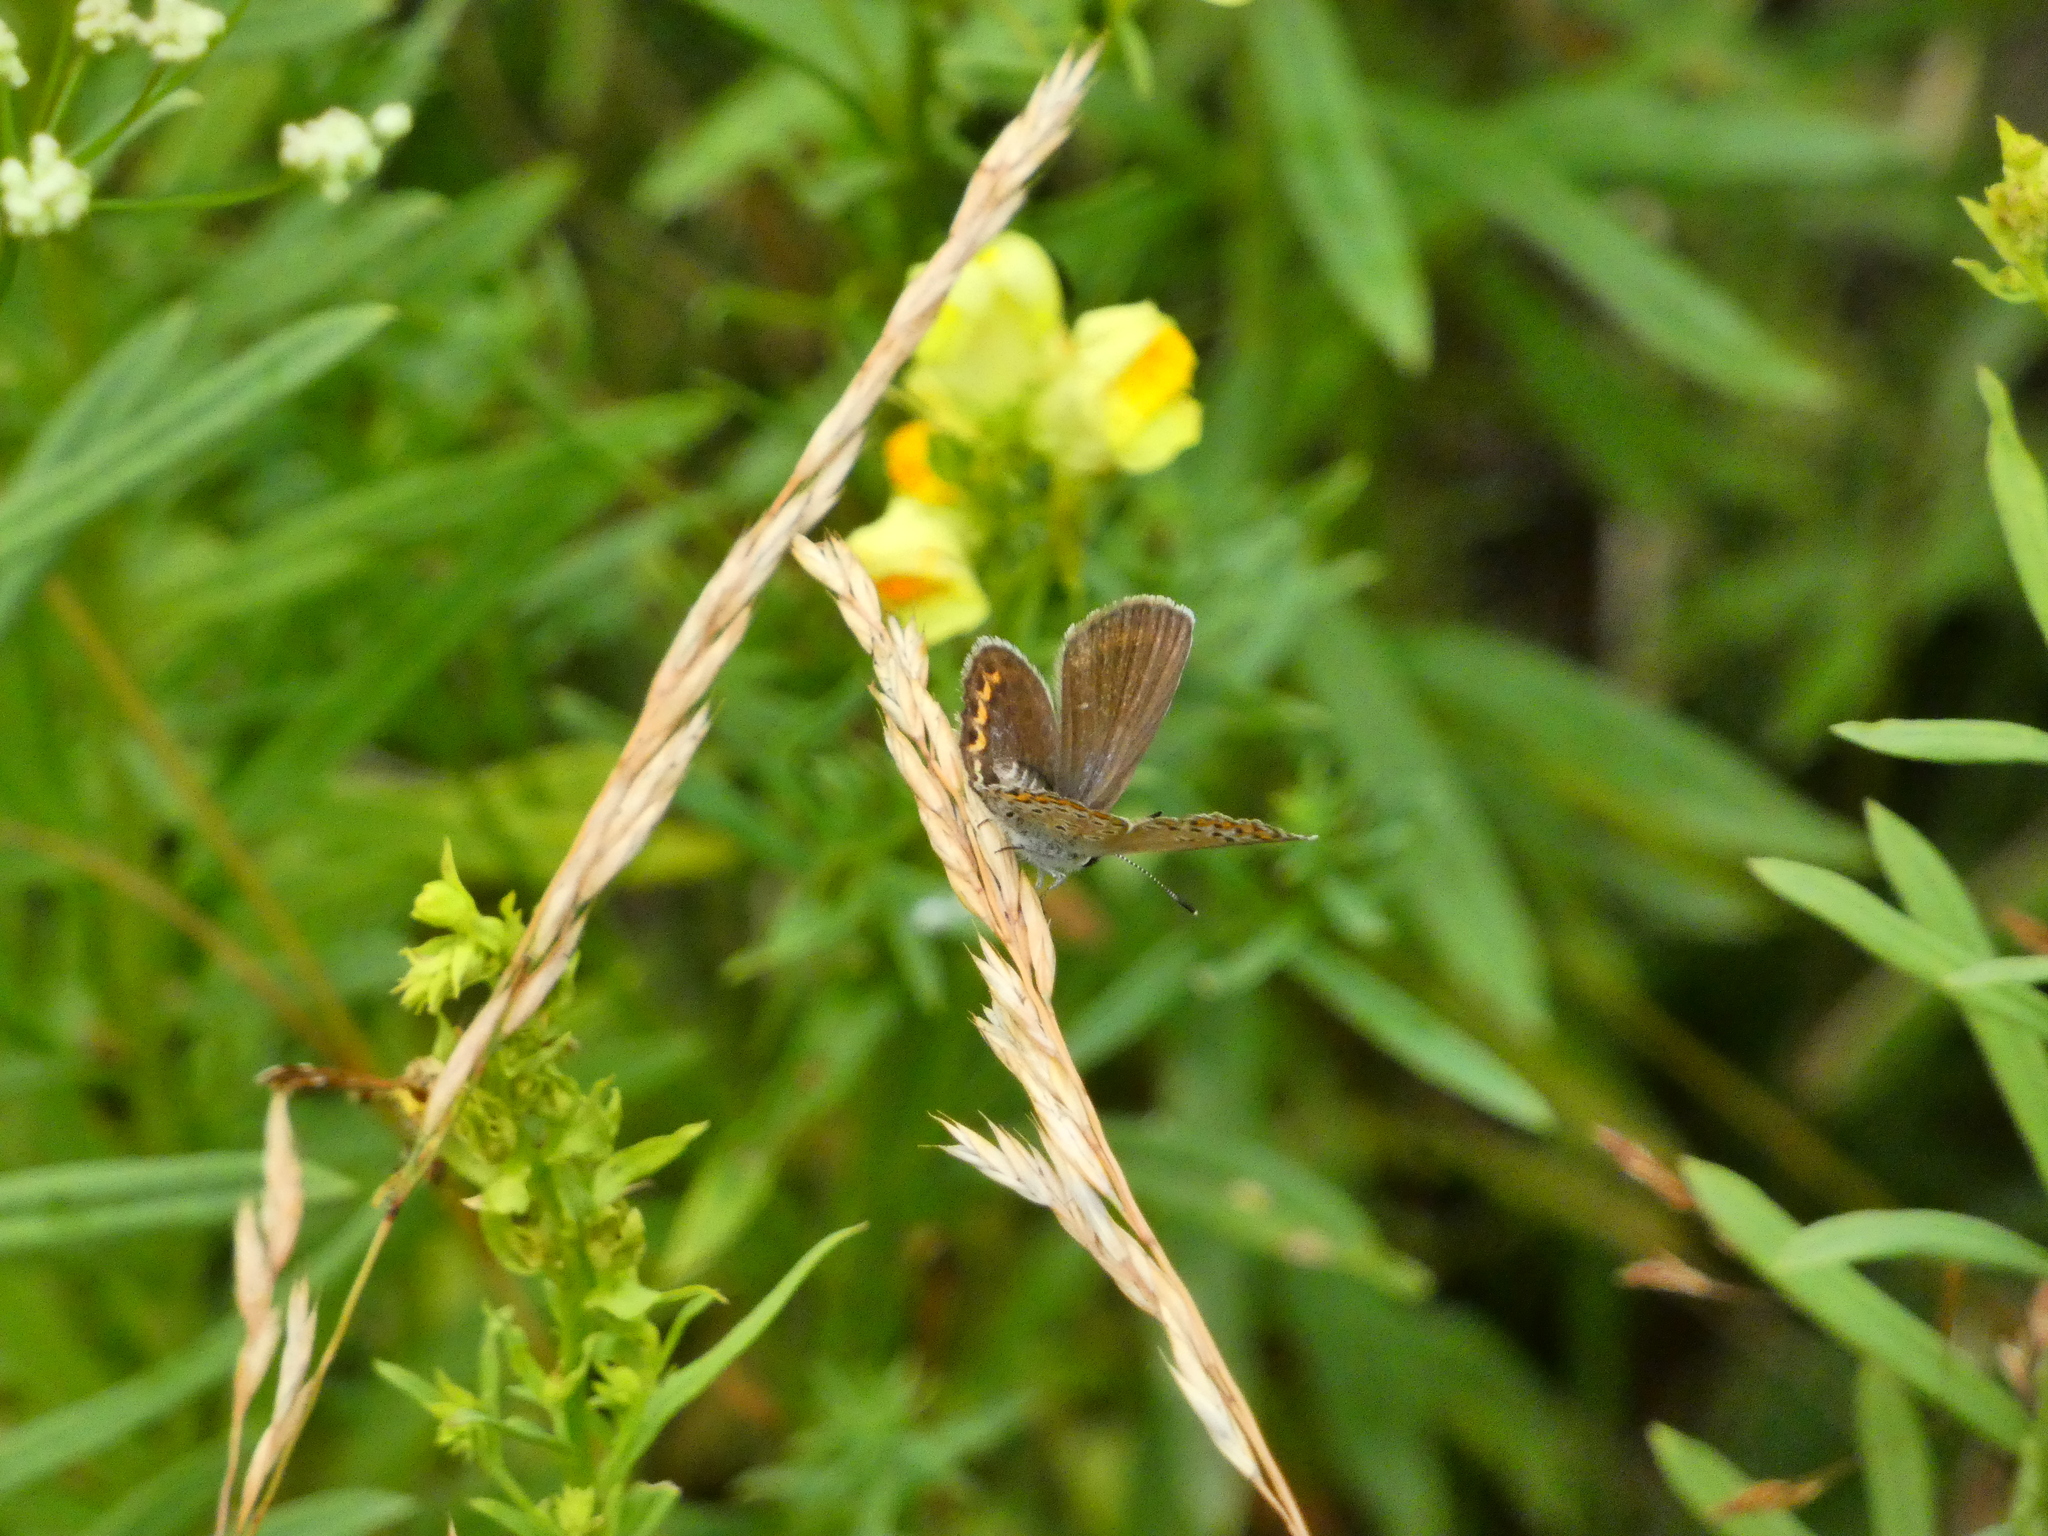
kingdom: Animalia
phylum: Arthropoda
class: Insecta
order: Lepidoptera
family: Lycaenidae
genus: Lycaeides
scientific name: Lycaeides idas
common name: Northern blue
